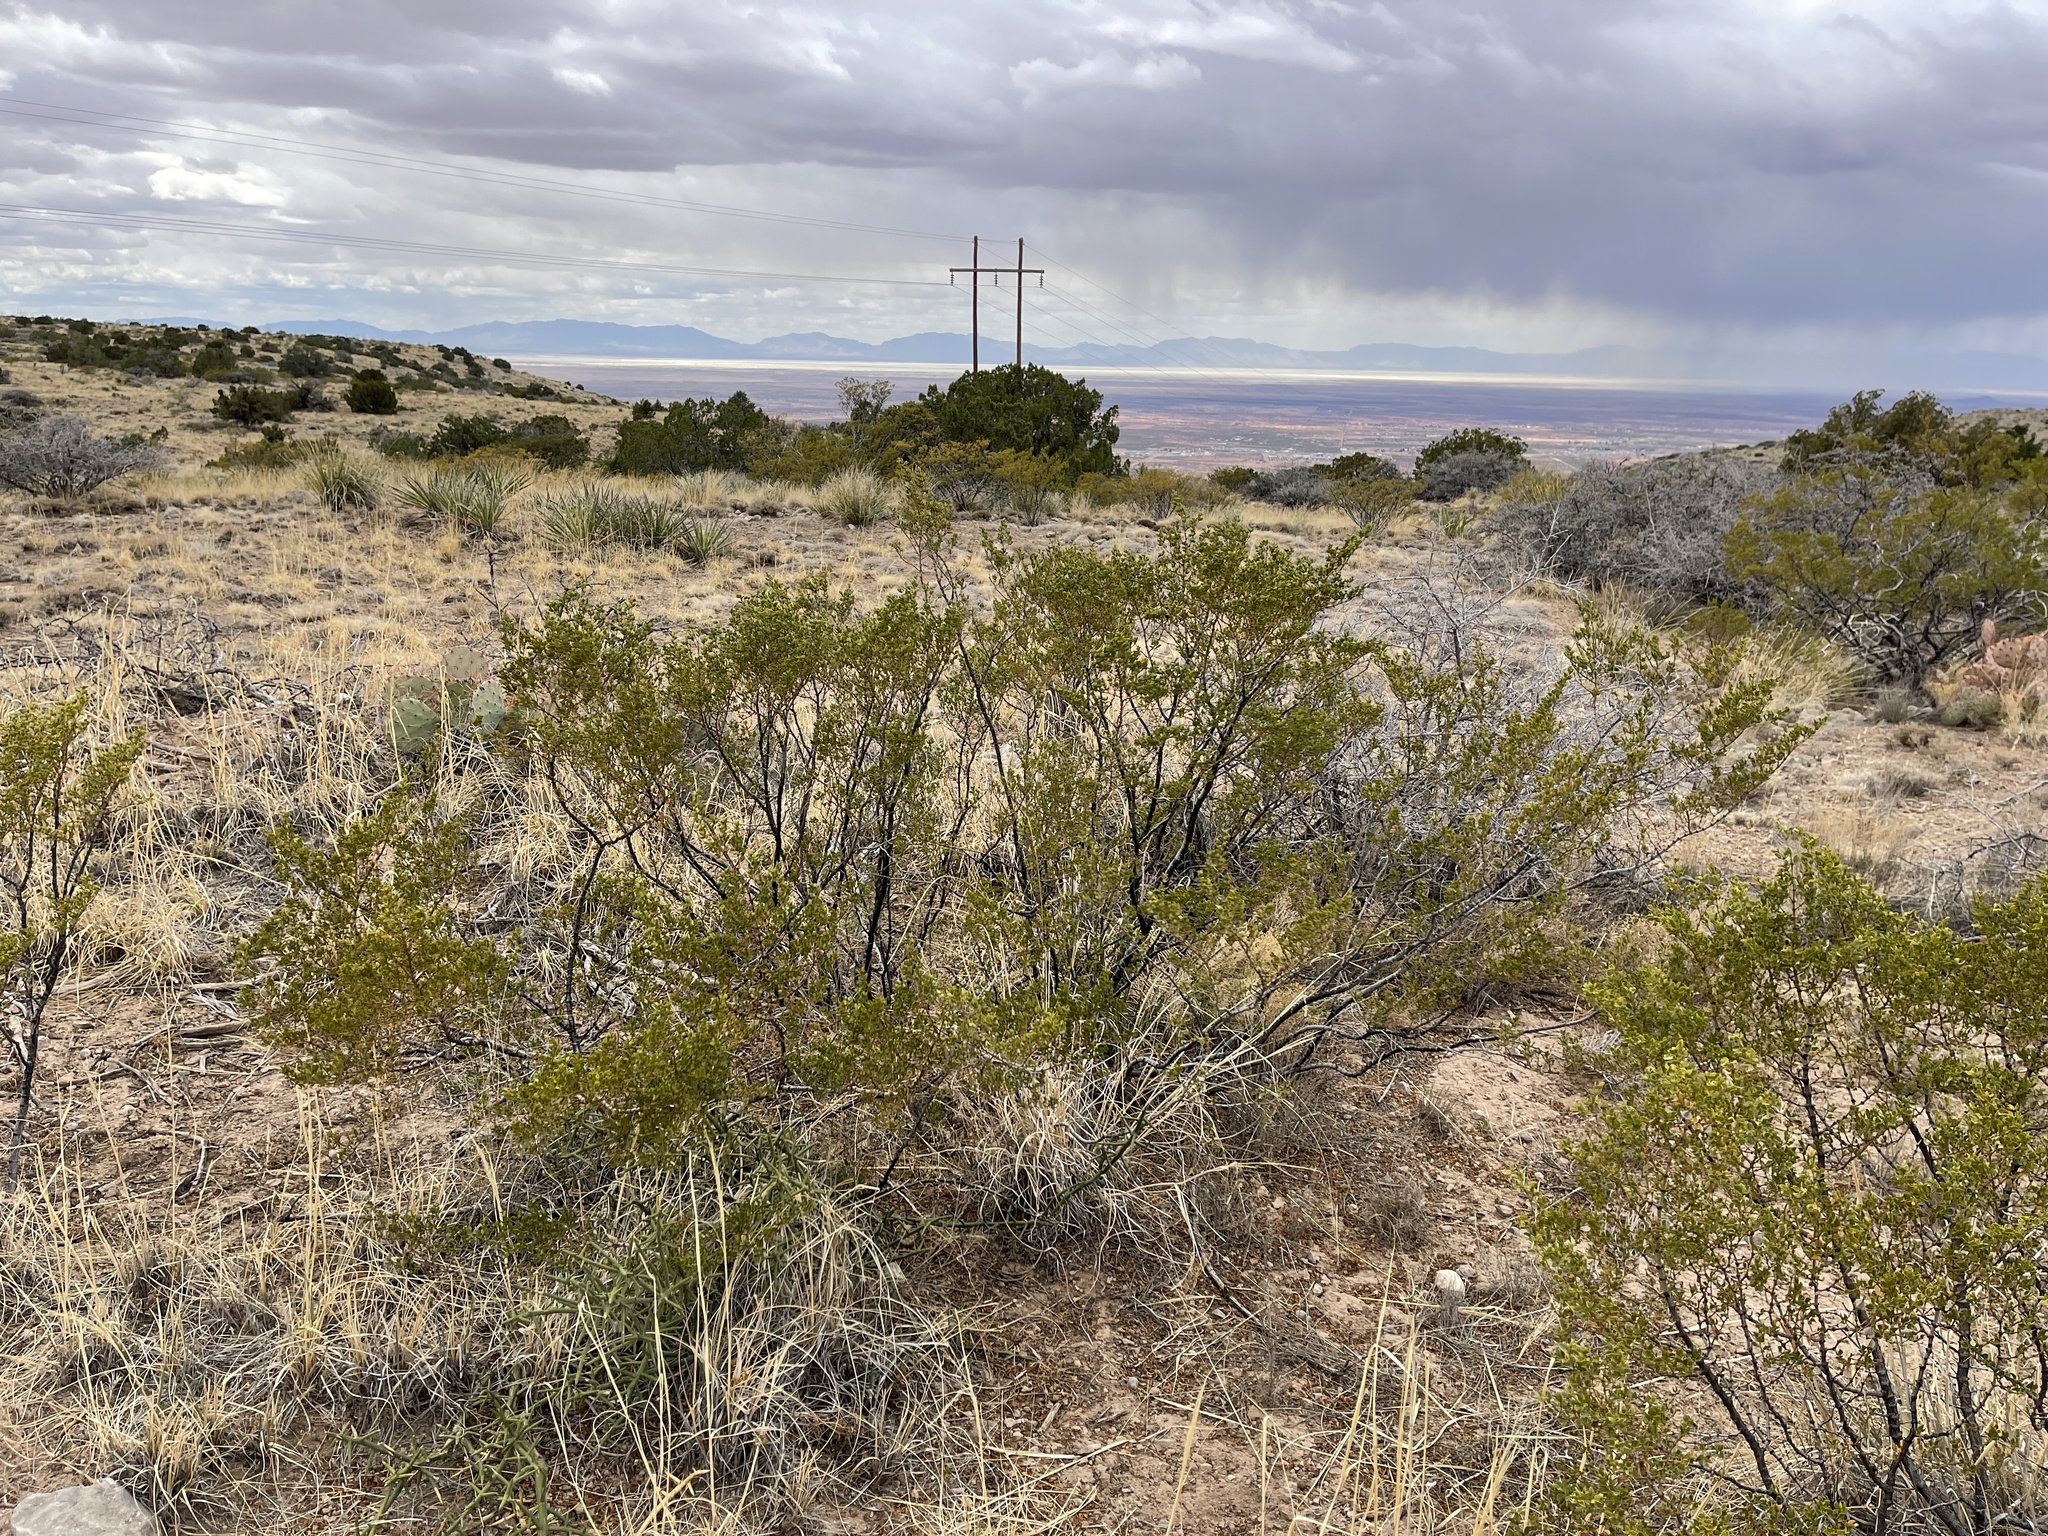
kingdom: Plantae
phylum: Tracheophyta
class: Magnoliopsida
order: Zygophyllales
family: Zygophyllaceae
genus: Larrea
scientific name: Larrea tridentata
